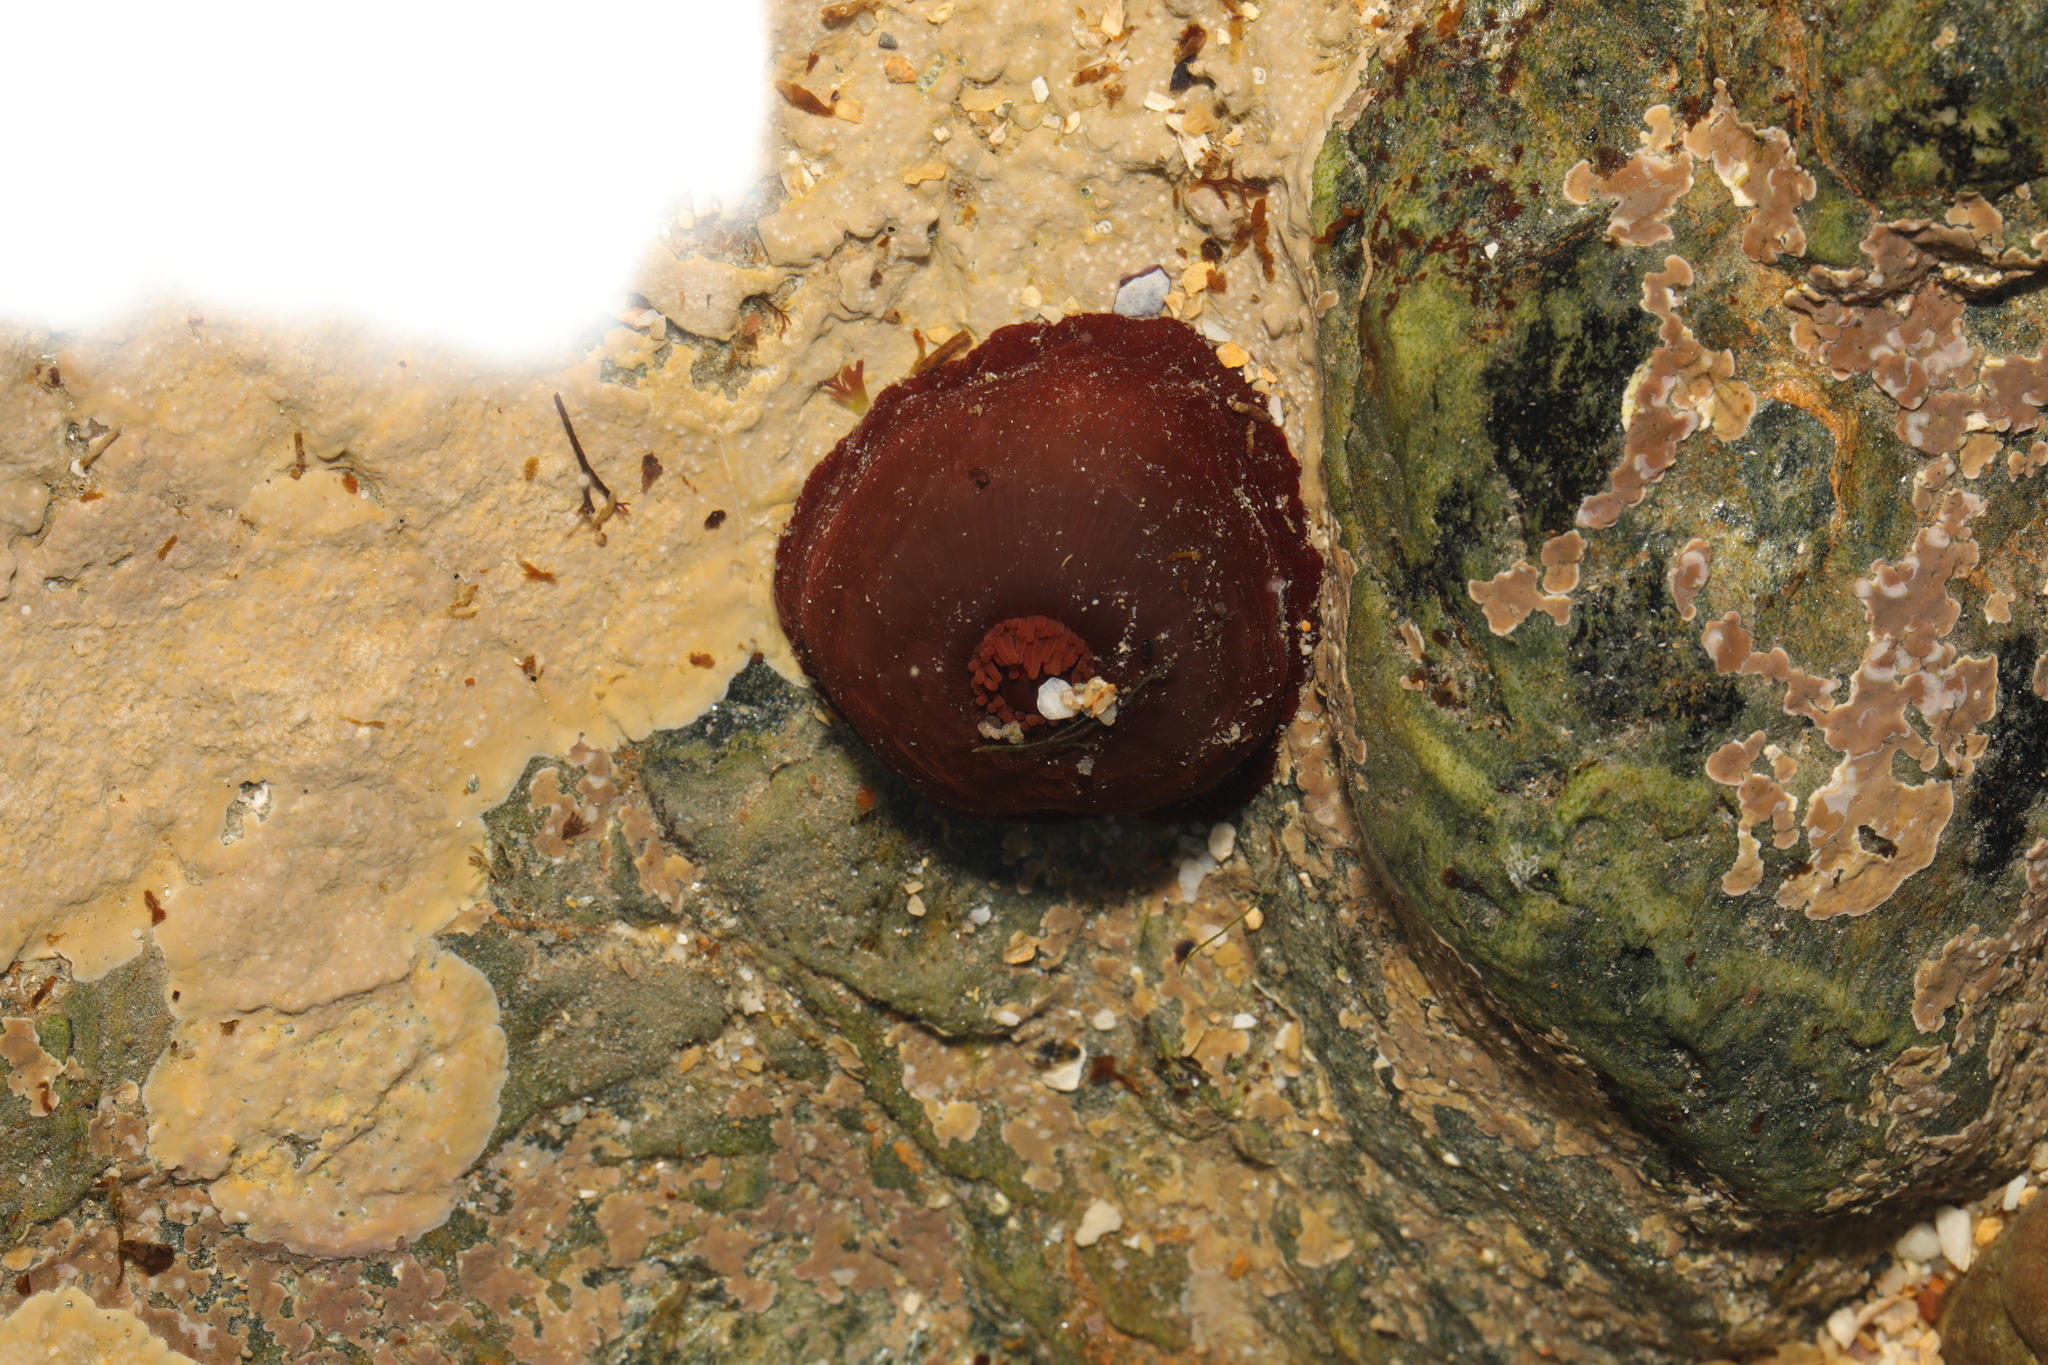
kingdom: Animalia
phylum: Cnidaria
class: Anthozoa
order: Actiniaria
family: Actiniidae
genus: Actinia
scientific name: Actinia equina
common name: Beadlet anemone
